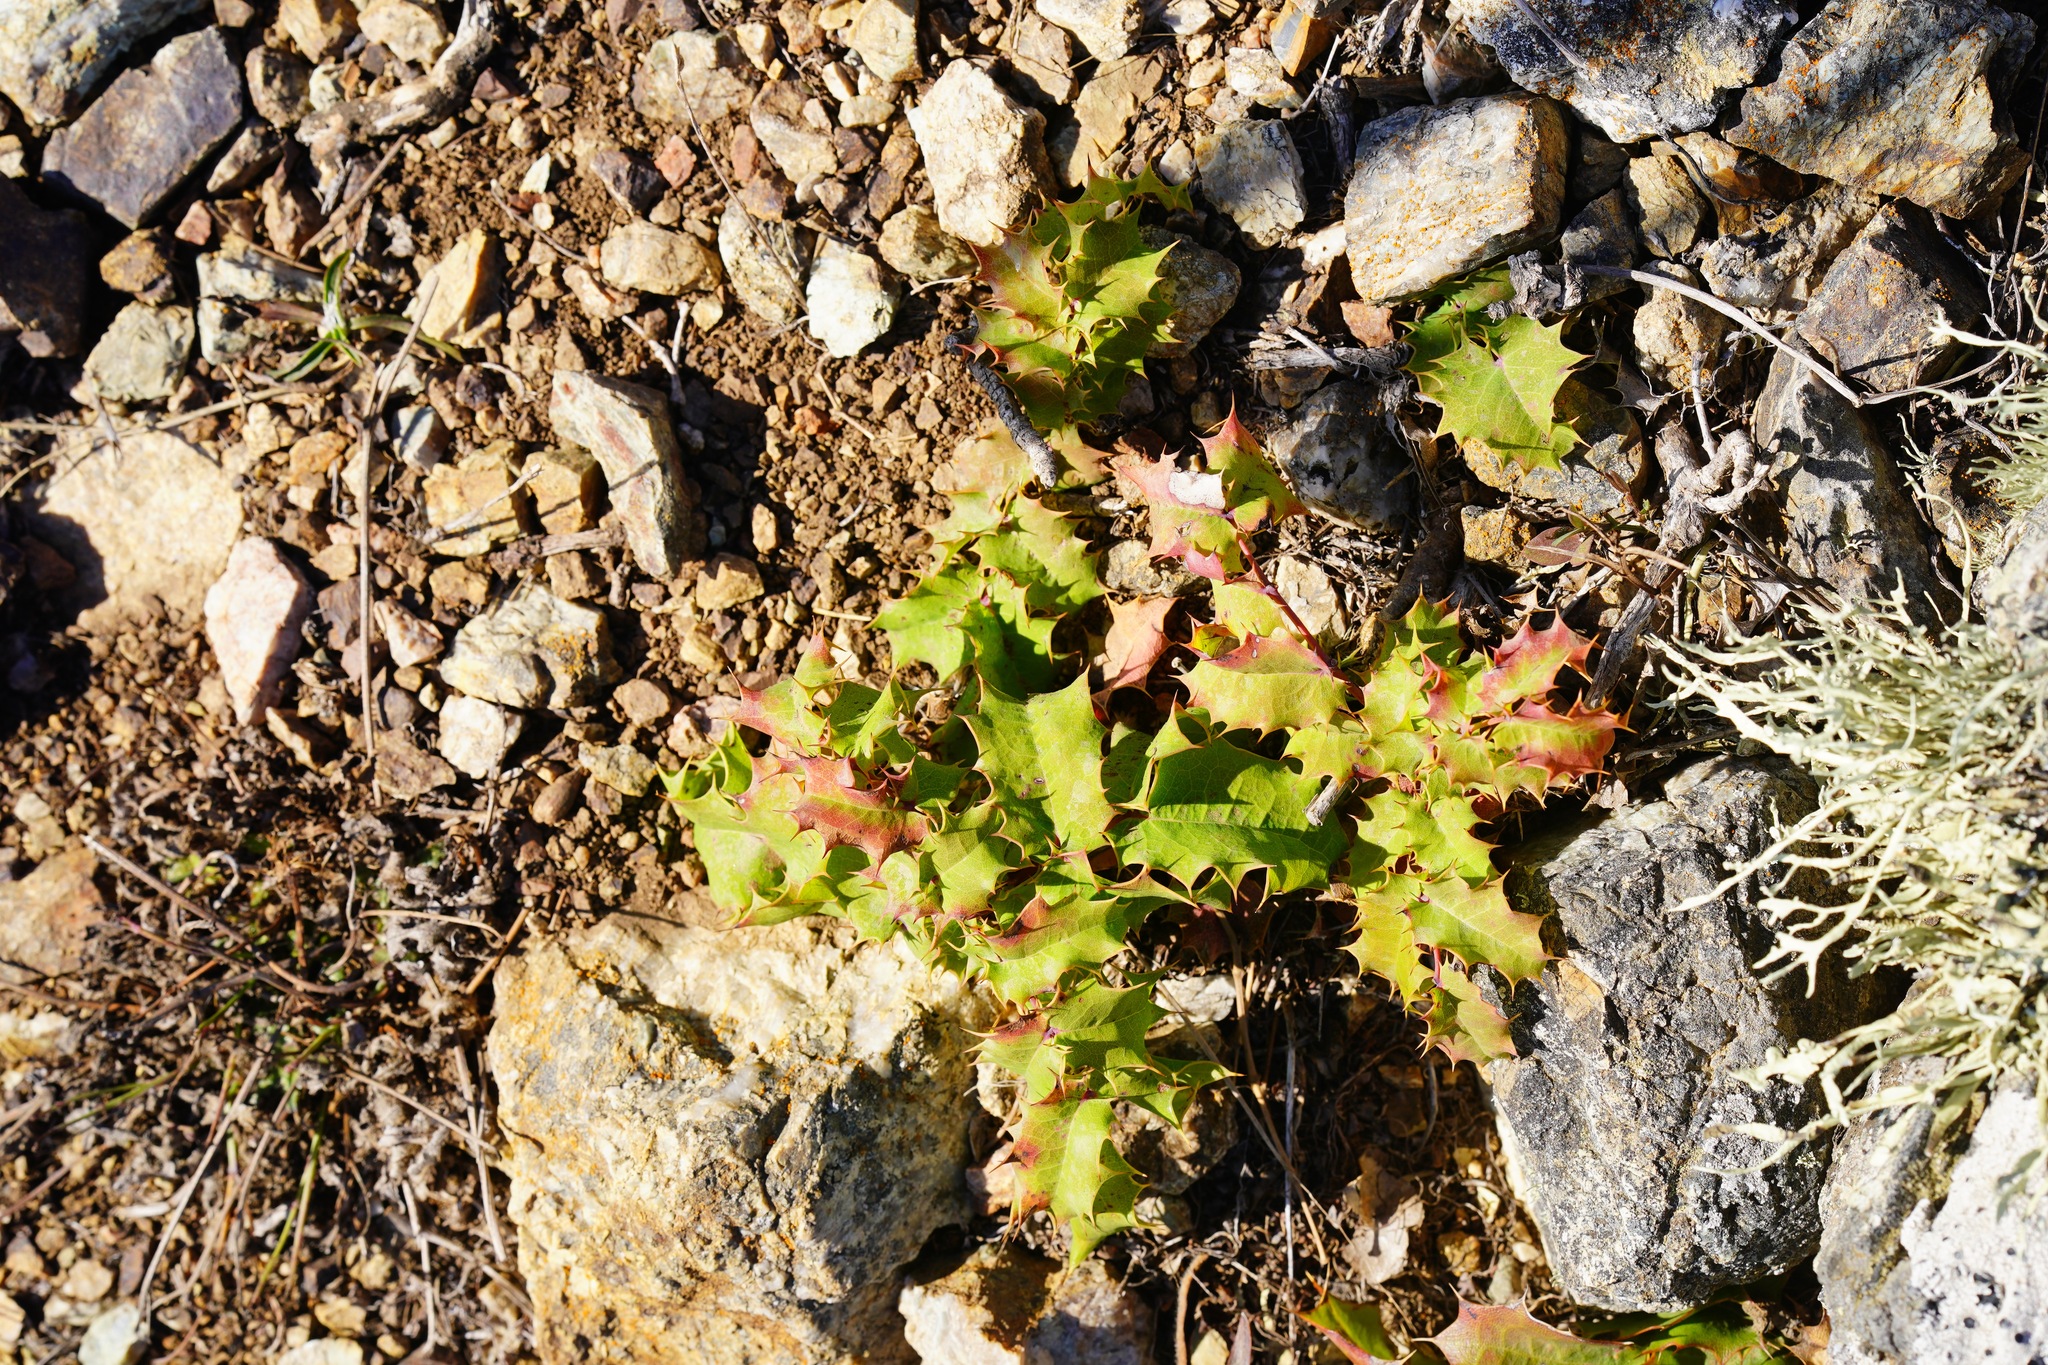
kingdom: Plantae
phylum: Tracheophyta
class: Magnoliopsida
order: Ranunculales
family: Berberidaceae
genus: Mahonia
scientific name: Mahonia
